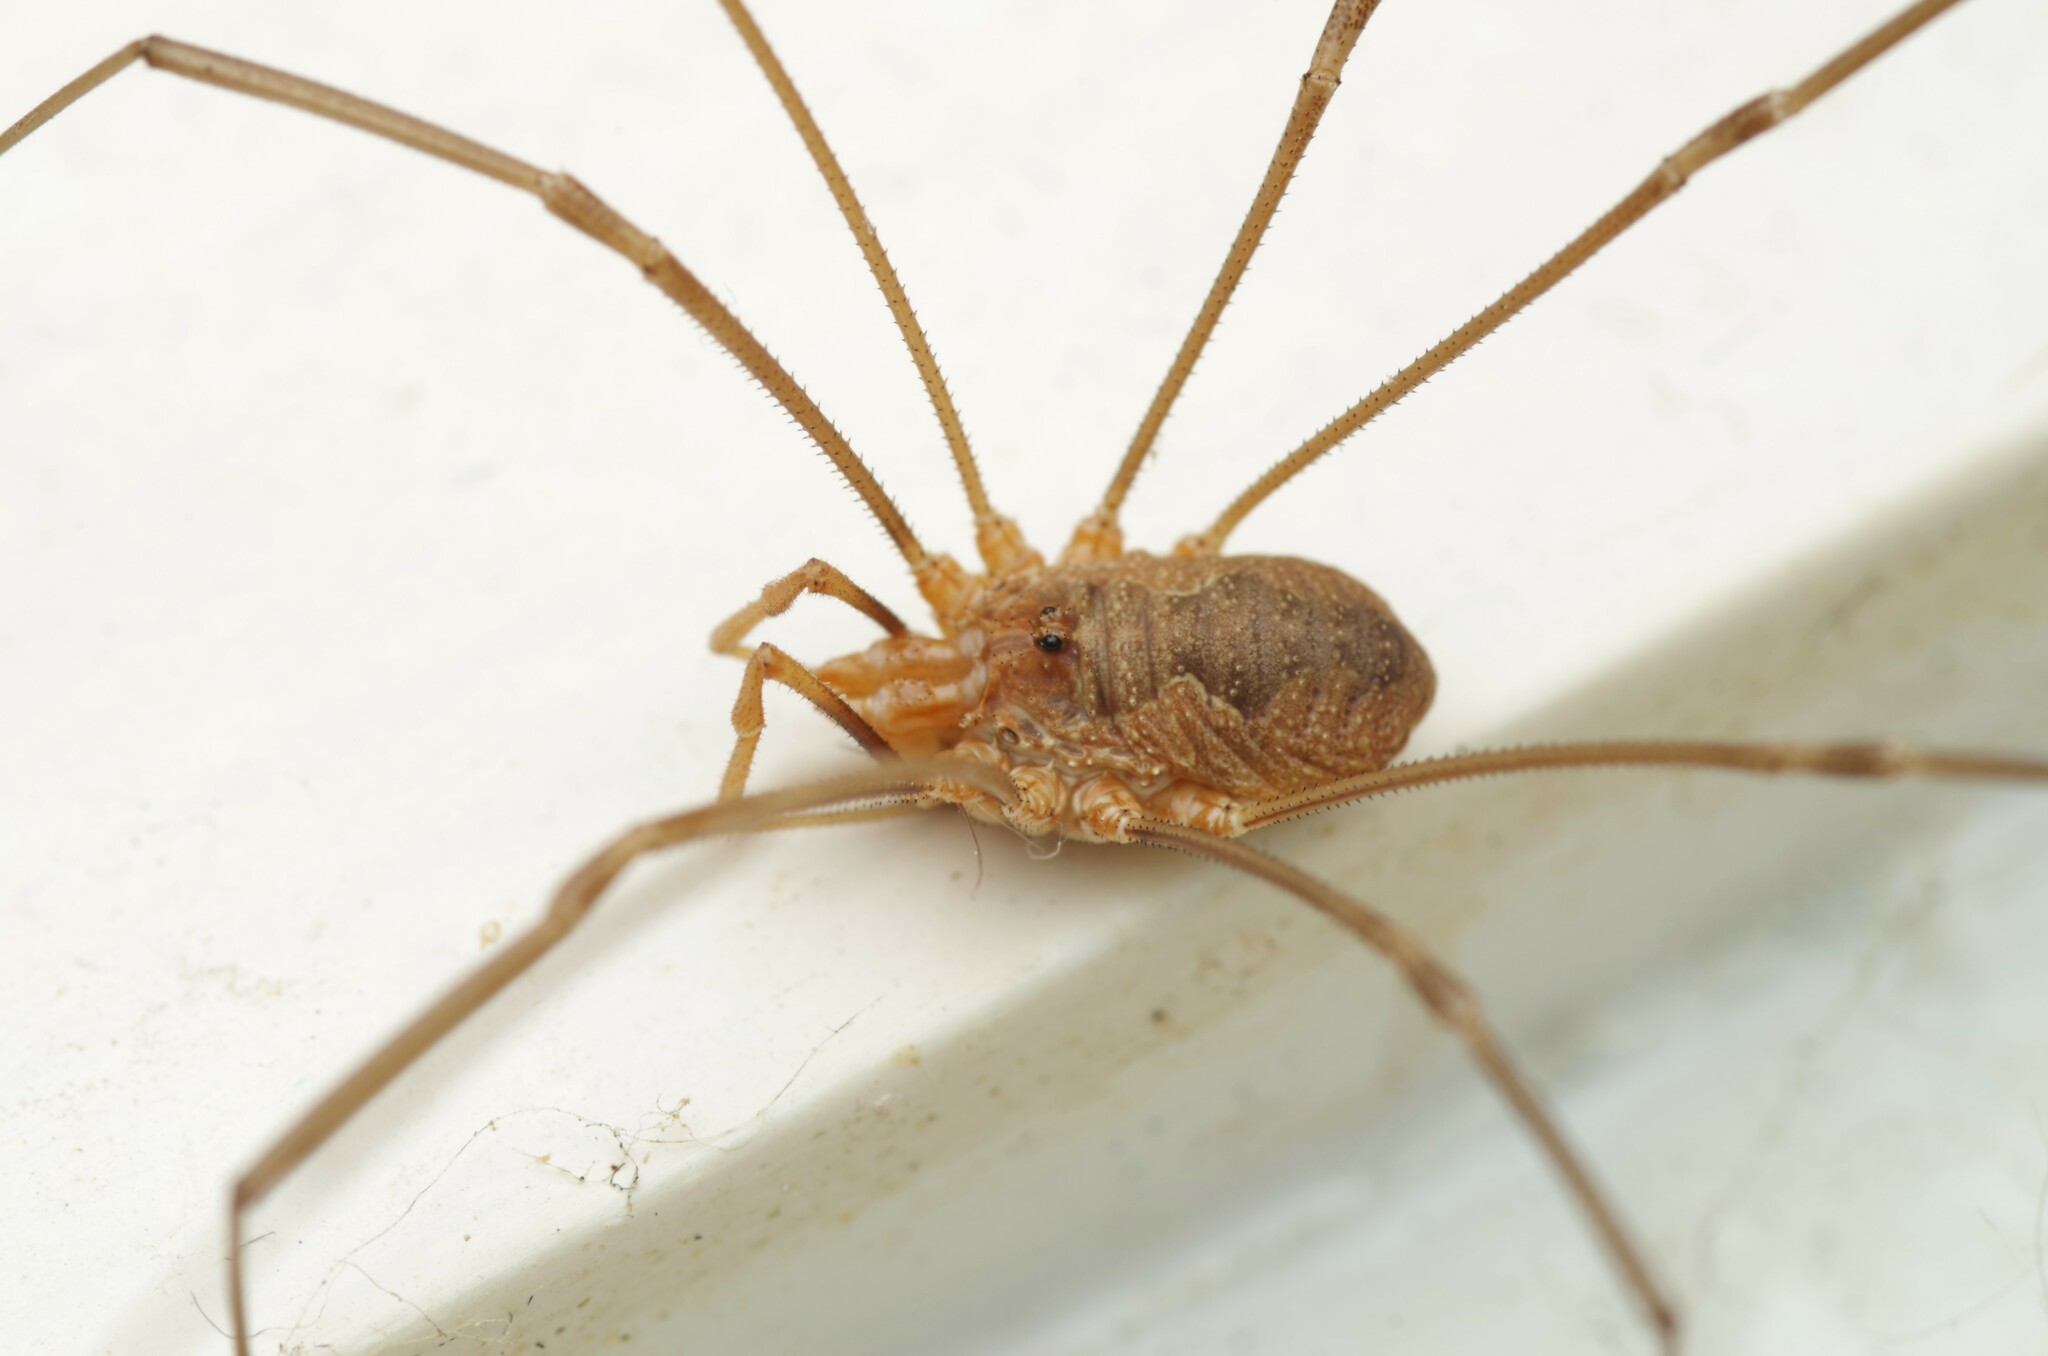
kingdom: Animalia
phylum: Arthropoda
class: Arachnida
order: Opiliones
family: Phalangiidae
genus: Phalangium
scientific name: Phalangium opilio
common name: Daddy longleg
